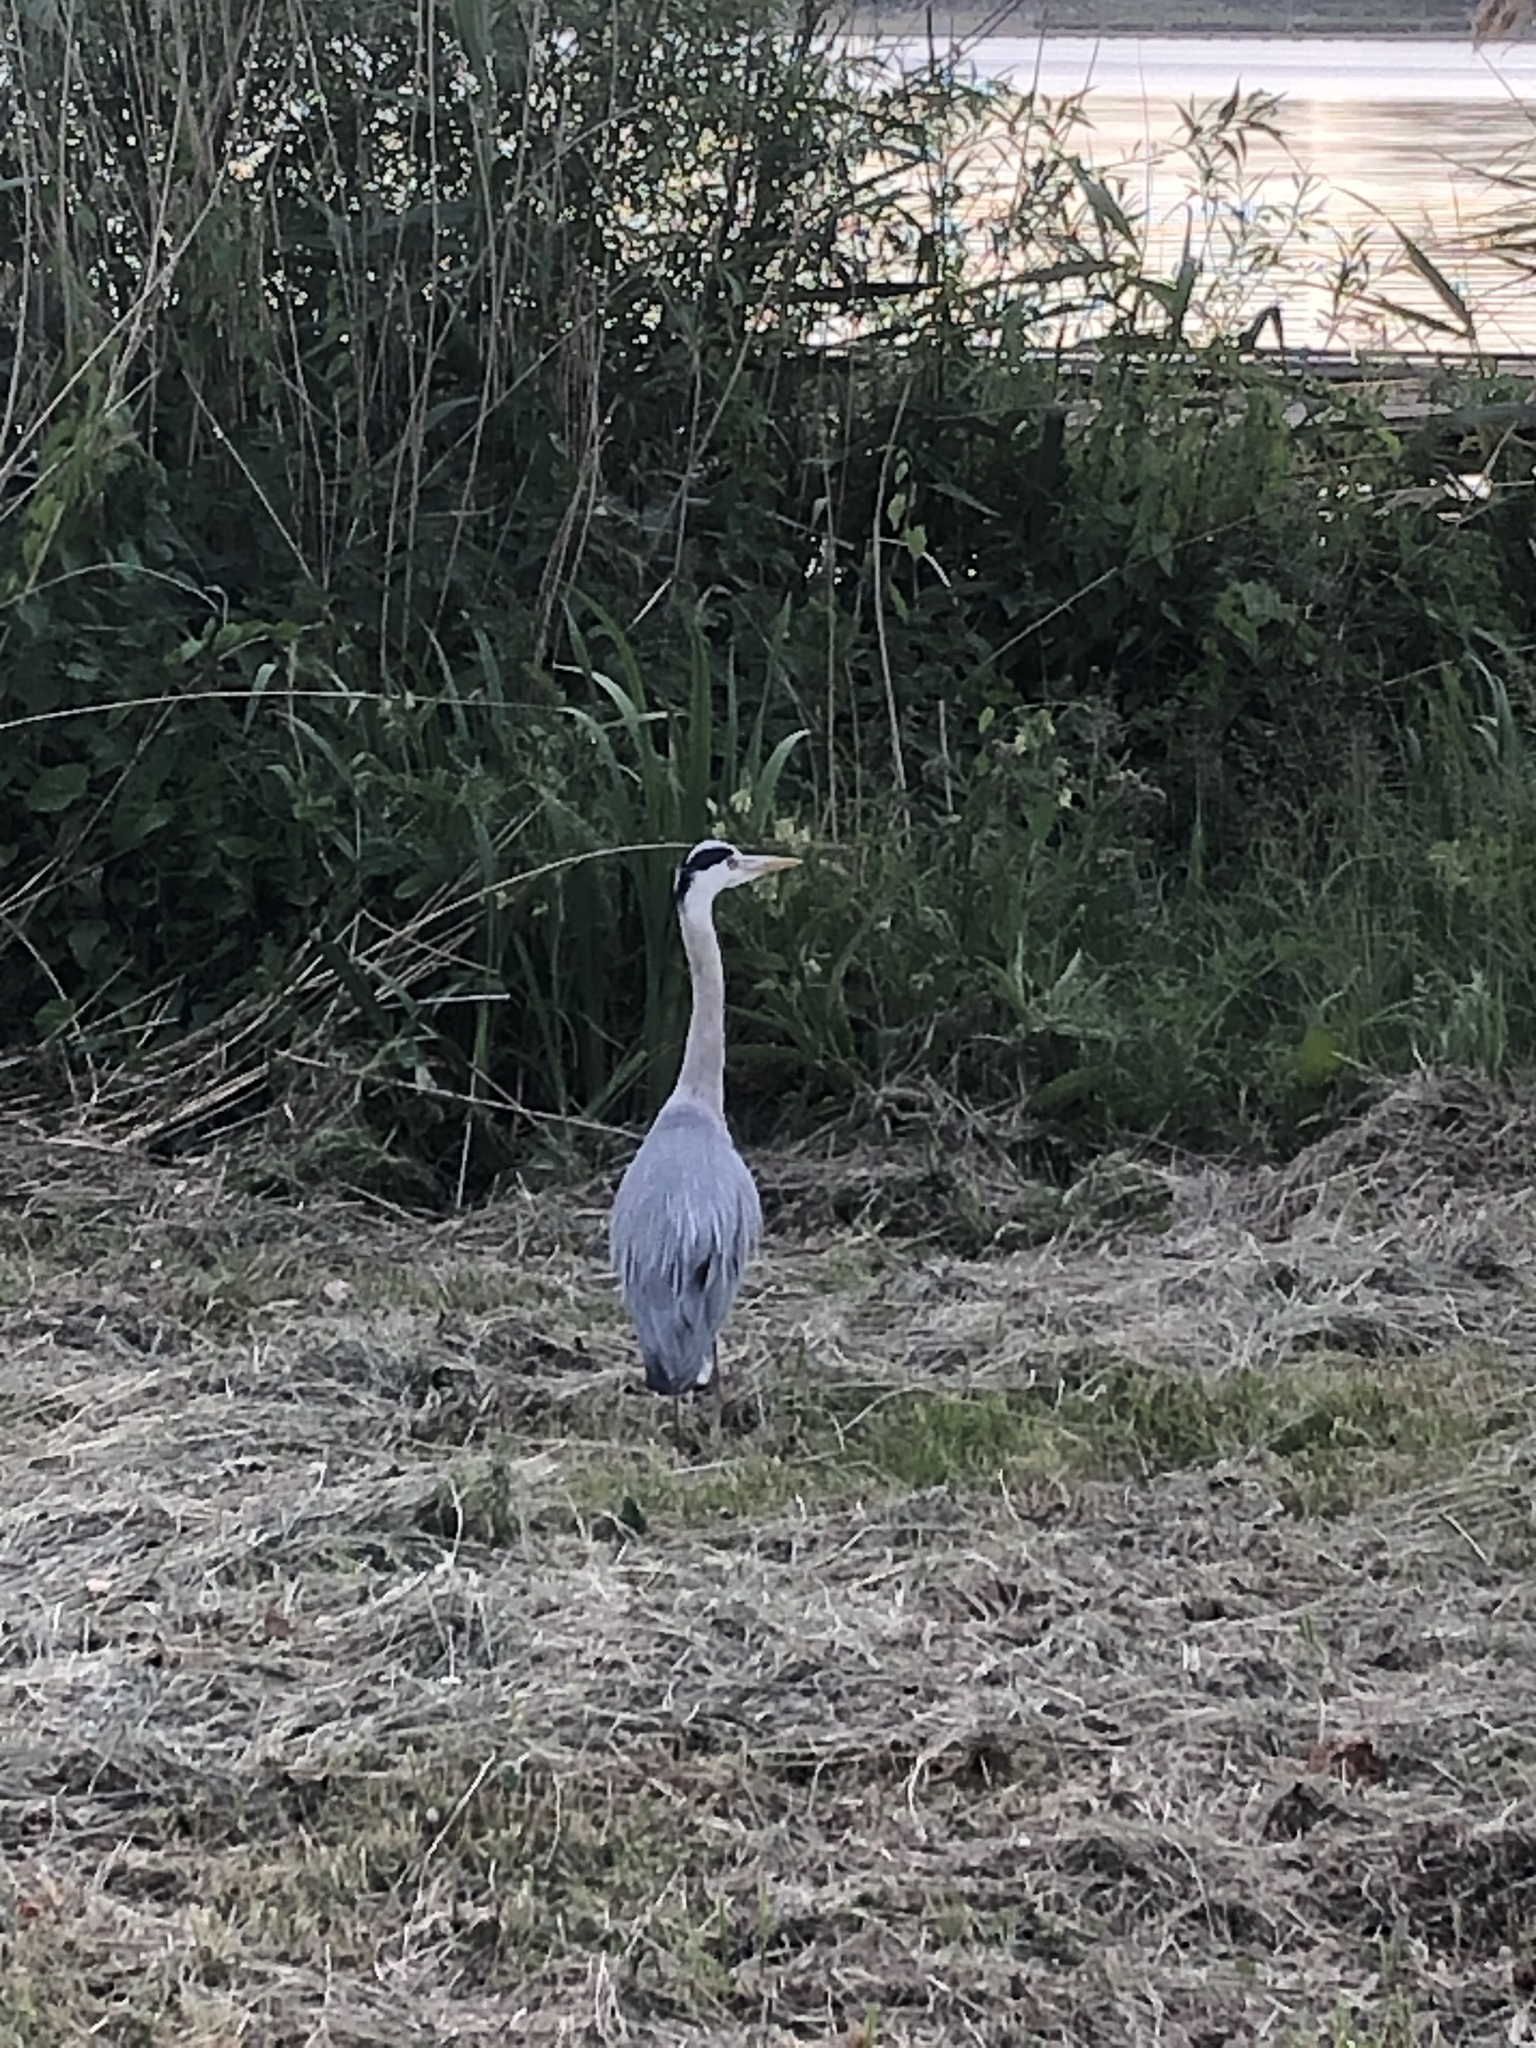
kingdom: Animalia
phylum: Chordata
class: Aves
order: Pelecaniformes
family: Ardeidae
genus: Ardea
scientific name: Ardea cinerea
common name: Grey heron
